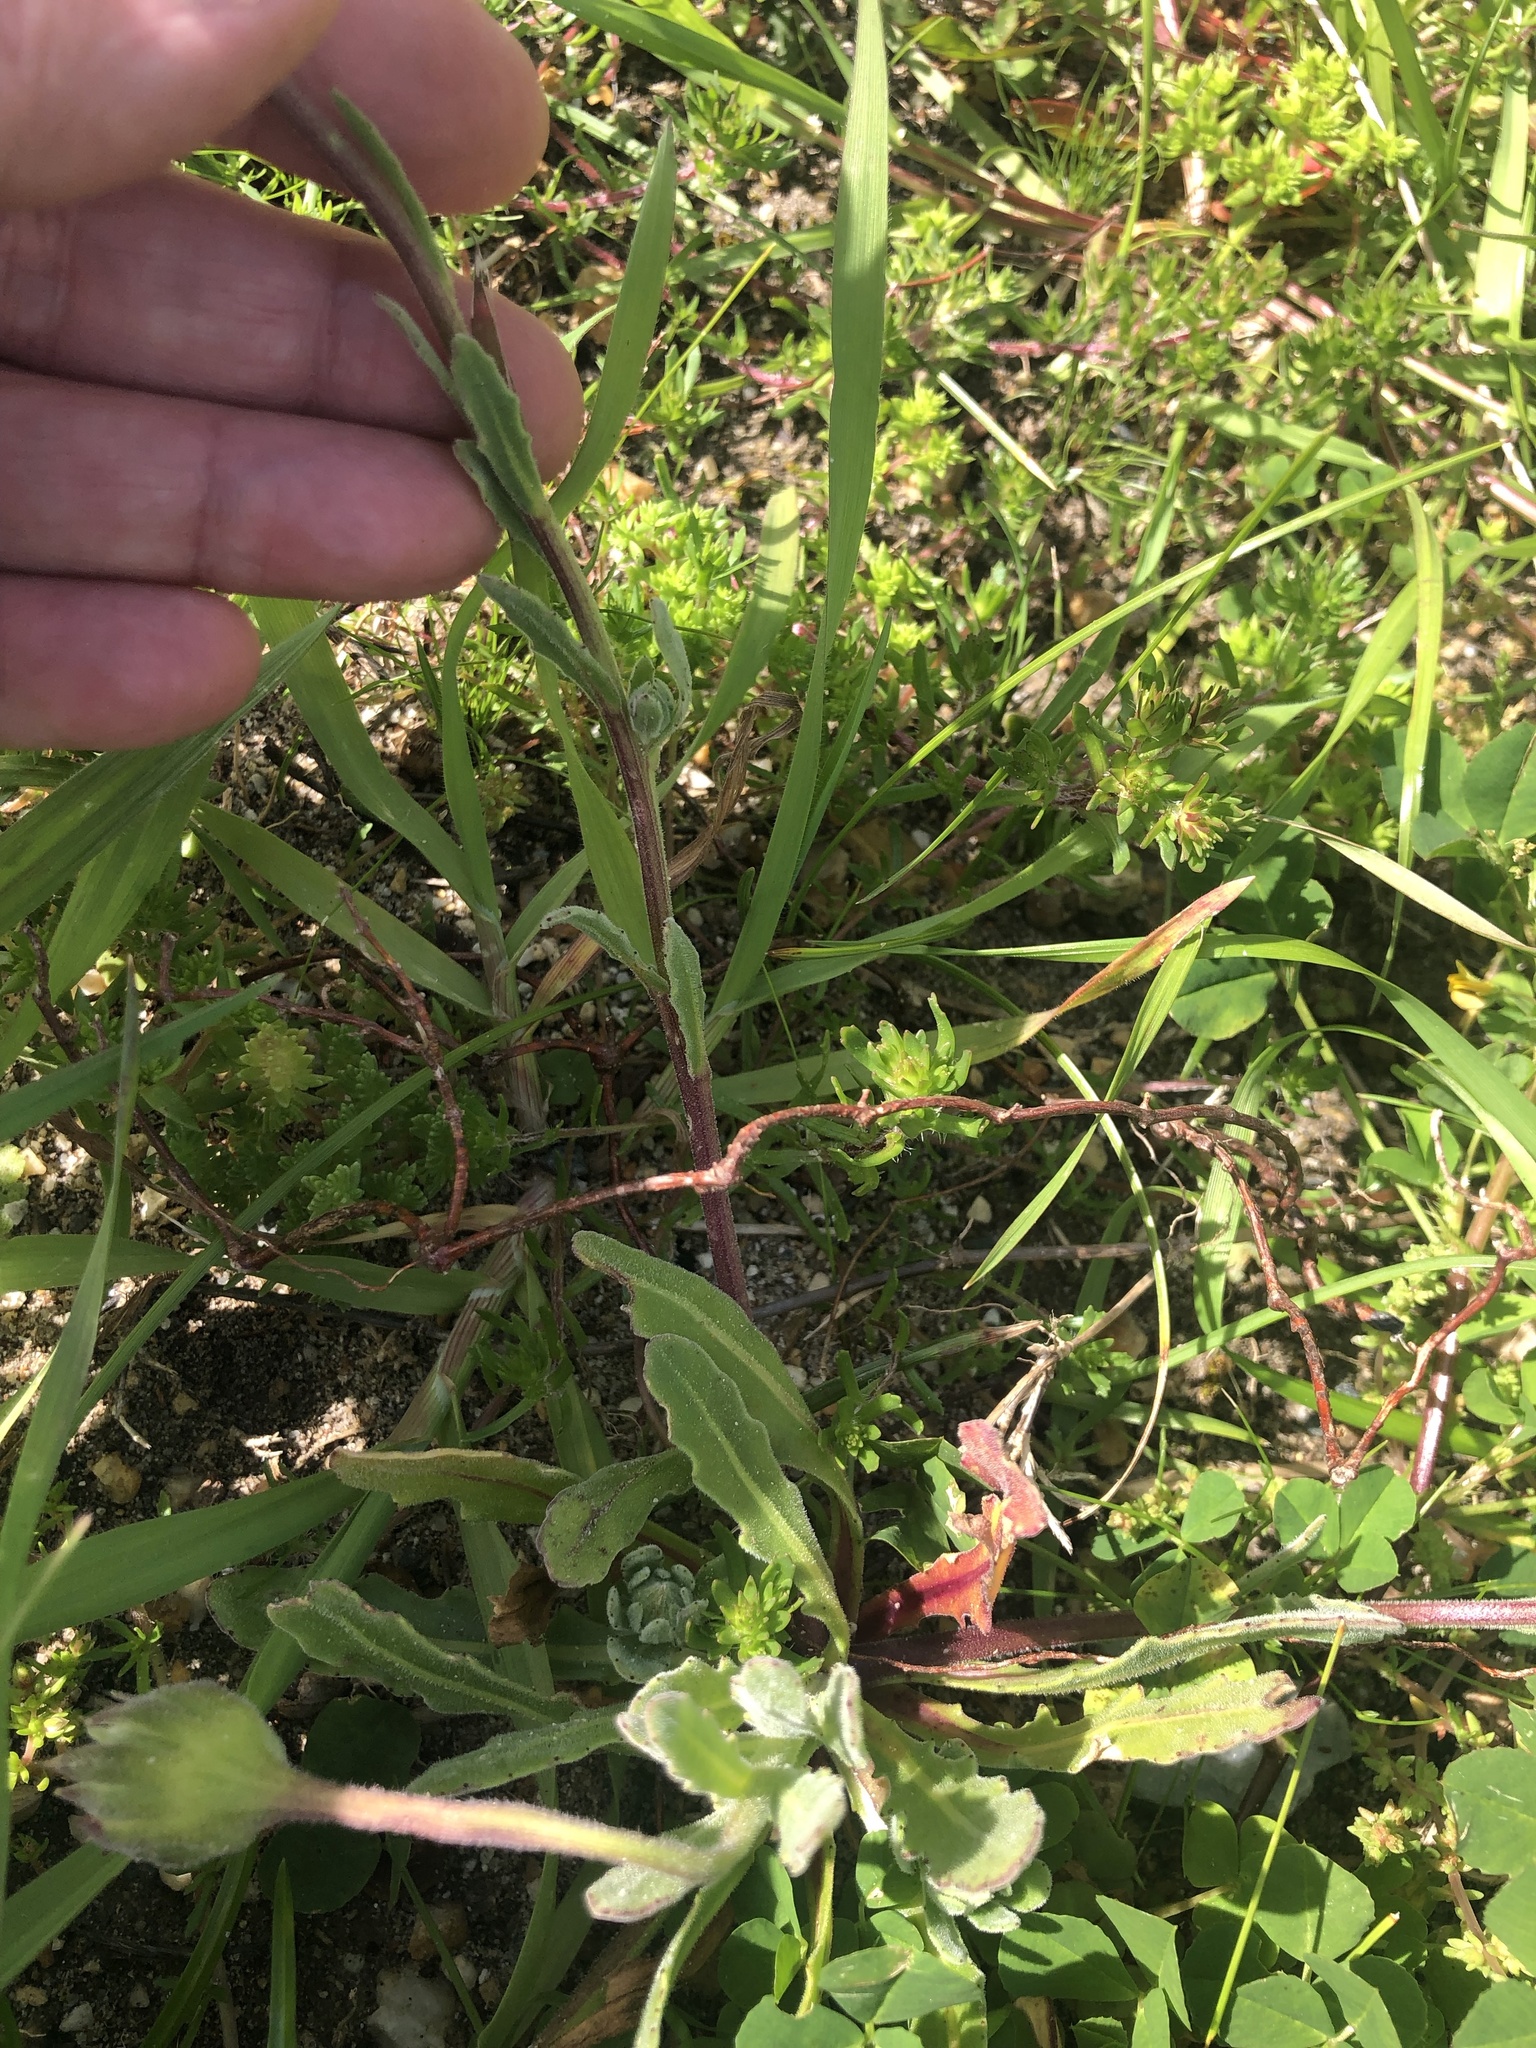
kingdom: Plantae
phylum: Tracheophyta
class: Magnoliopsida
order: Asterales
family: Asteraceae
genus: Dimorphotheca
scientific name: Dimorphotheca pluvialis
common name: Weather prophet
